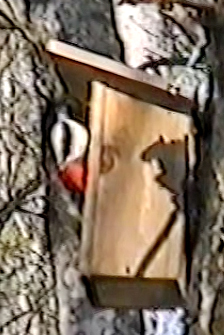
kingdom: Animalia
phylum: Chordata
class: Aves
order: Piciformes
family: Picidae
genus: Dendrocopos
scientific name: Dendrocopos major
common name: Great spotted woodpecker
